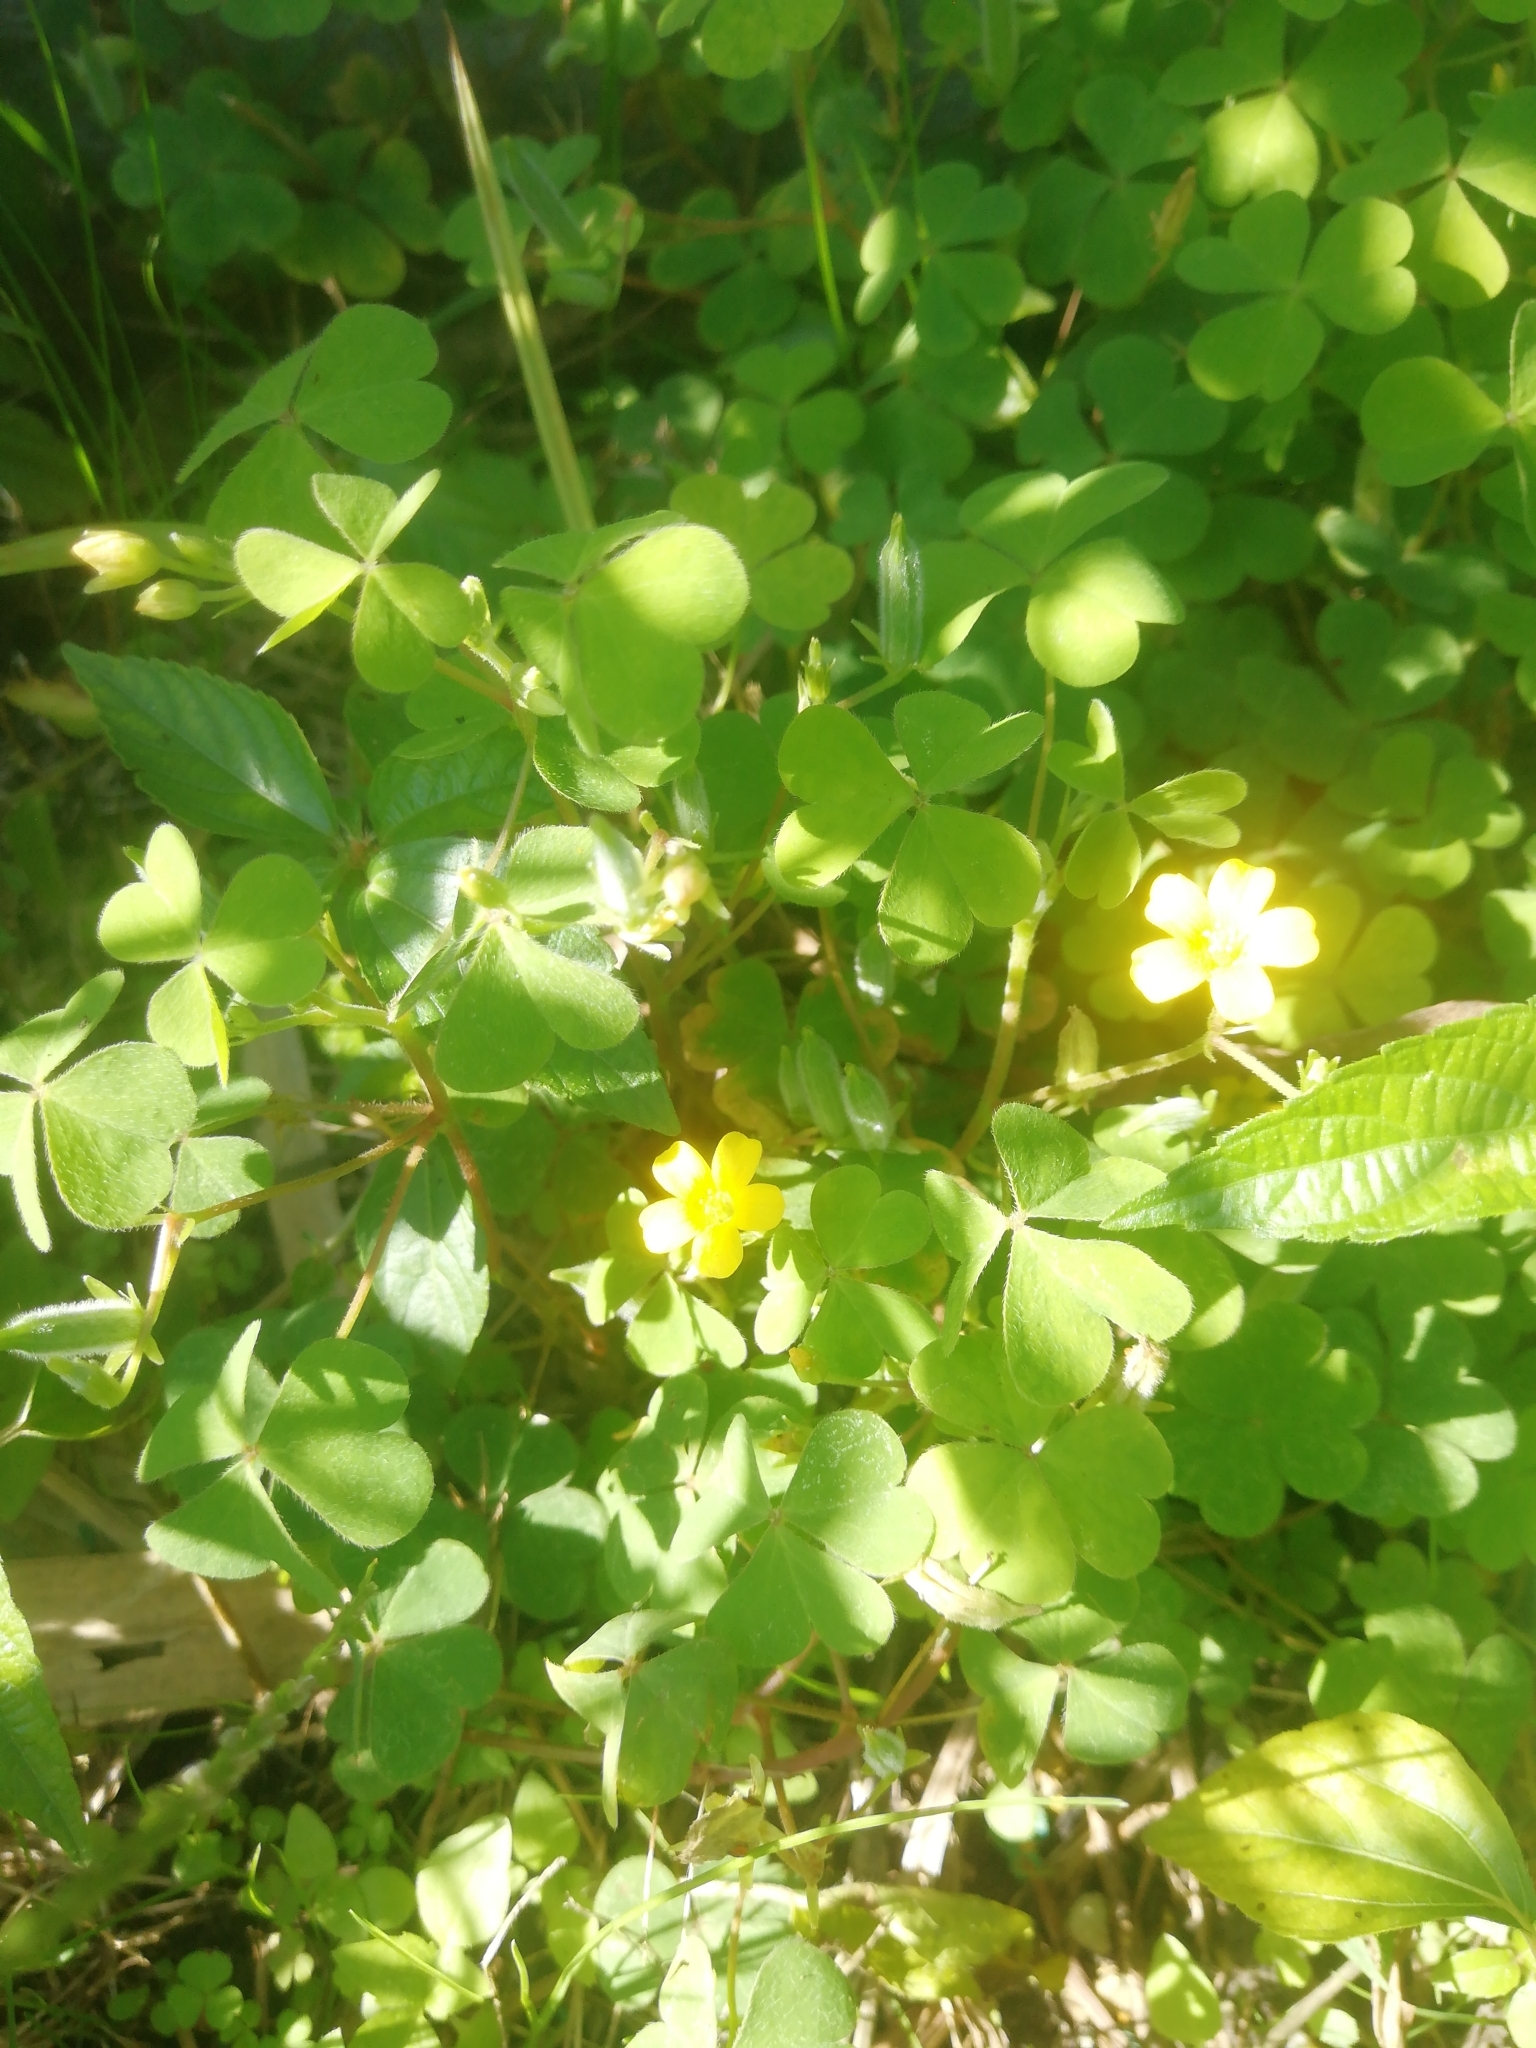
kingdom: Plantae
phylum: Tracheophyta
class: Magnoliopsida
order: Oxalidales
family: Oxalidaceae
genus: Oxalis
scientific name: Oxalis stricta
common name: Upright yellow-sorrel
